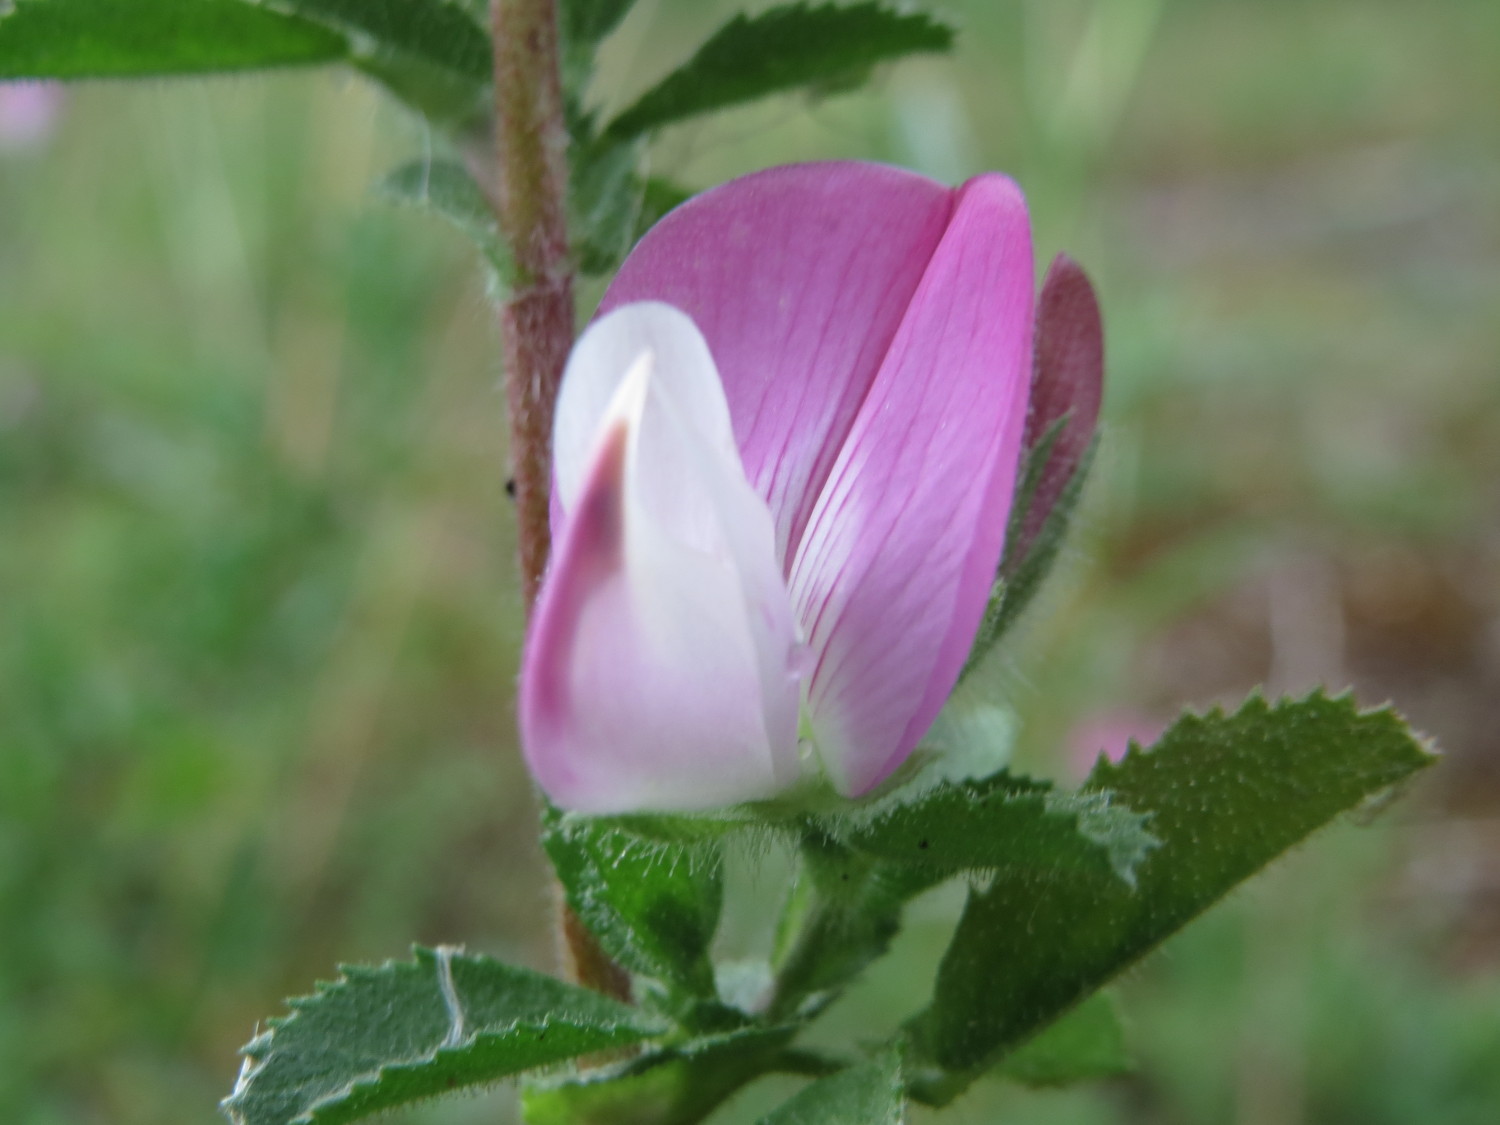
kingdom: Plantae
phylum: Tracheophyta
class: Magnoliopsida
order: Fabales
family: Fabaceae
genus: Ononis
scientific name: Ononis spinosa
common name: Spiny restharrow
